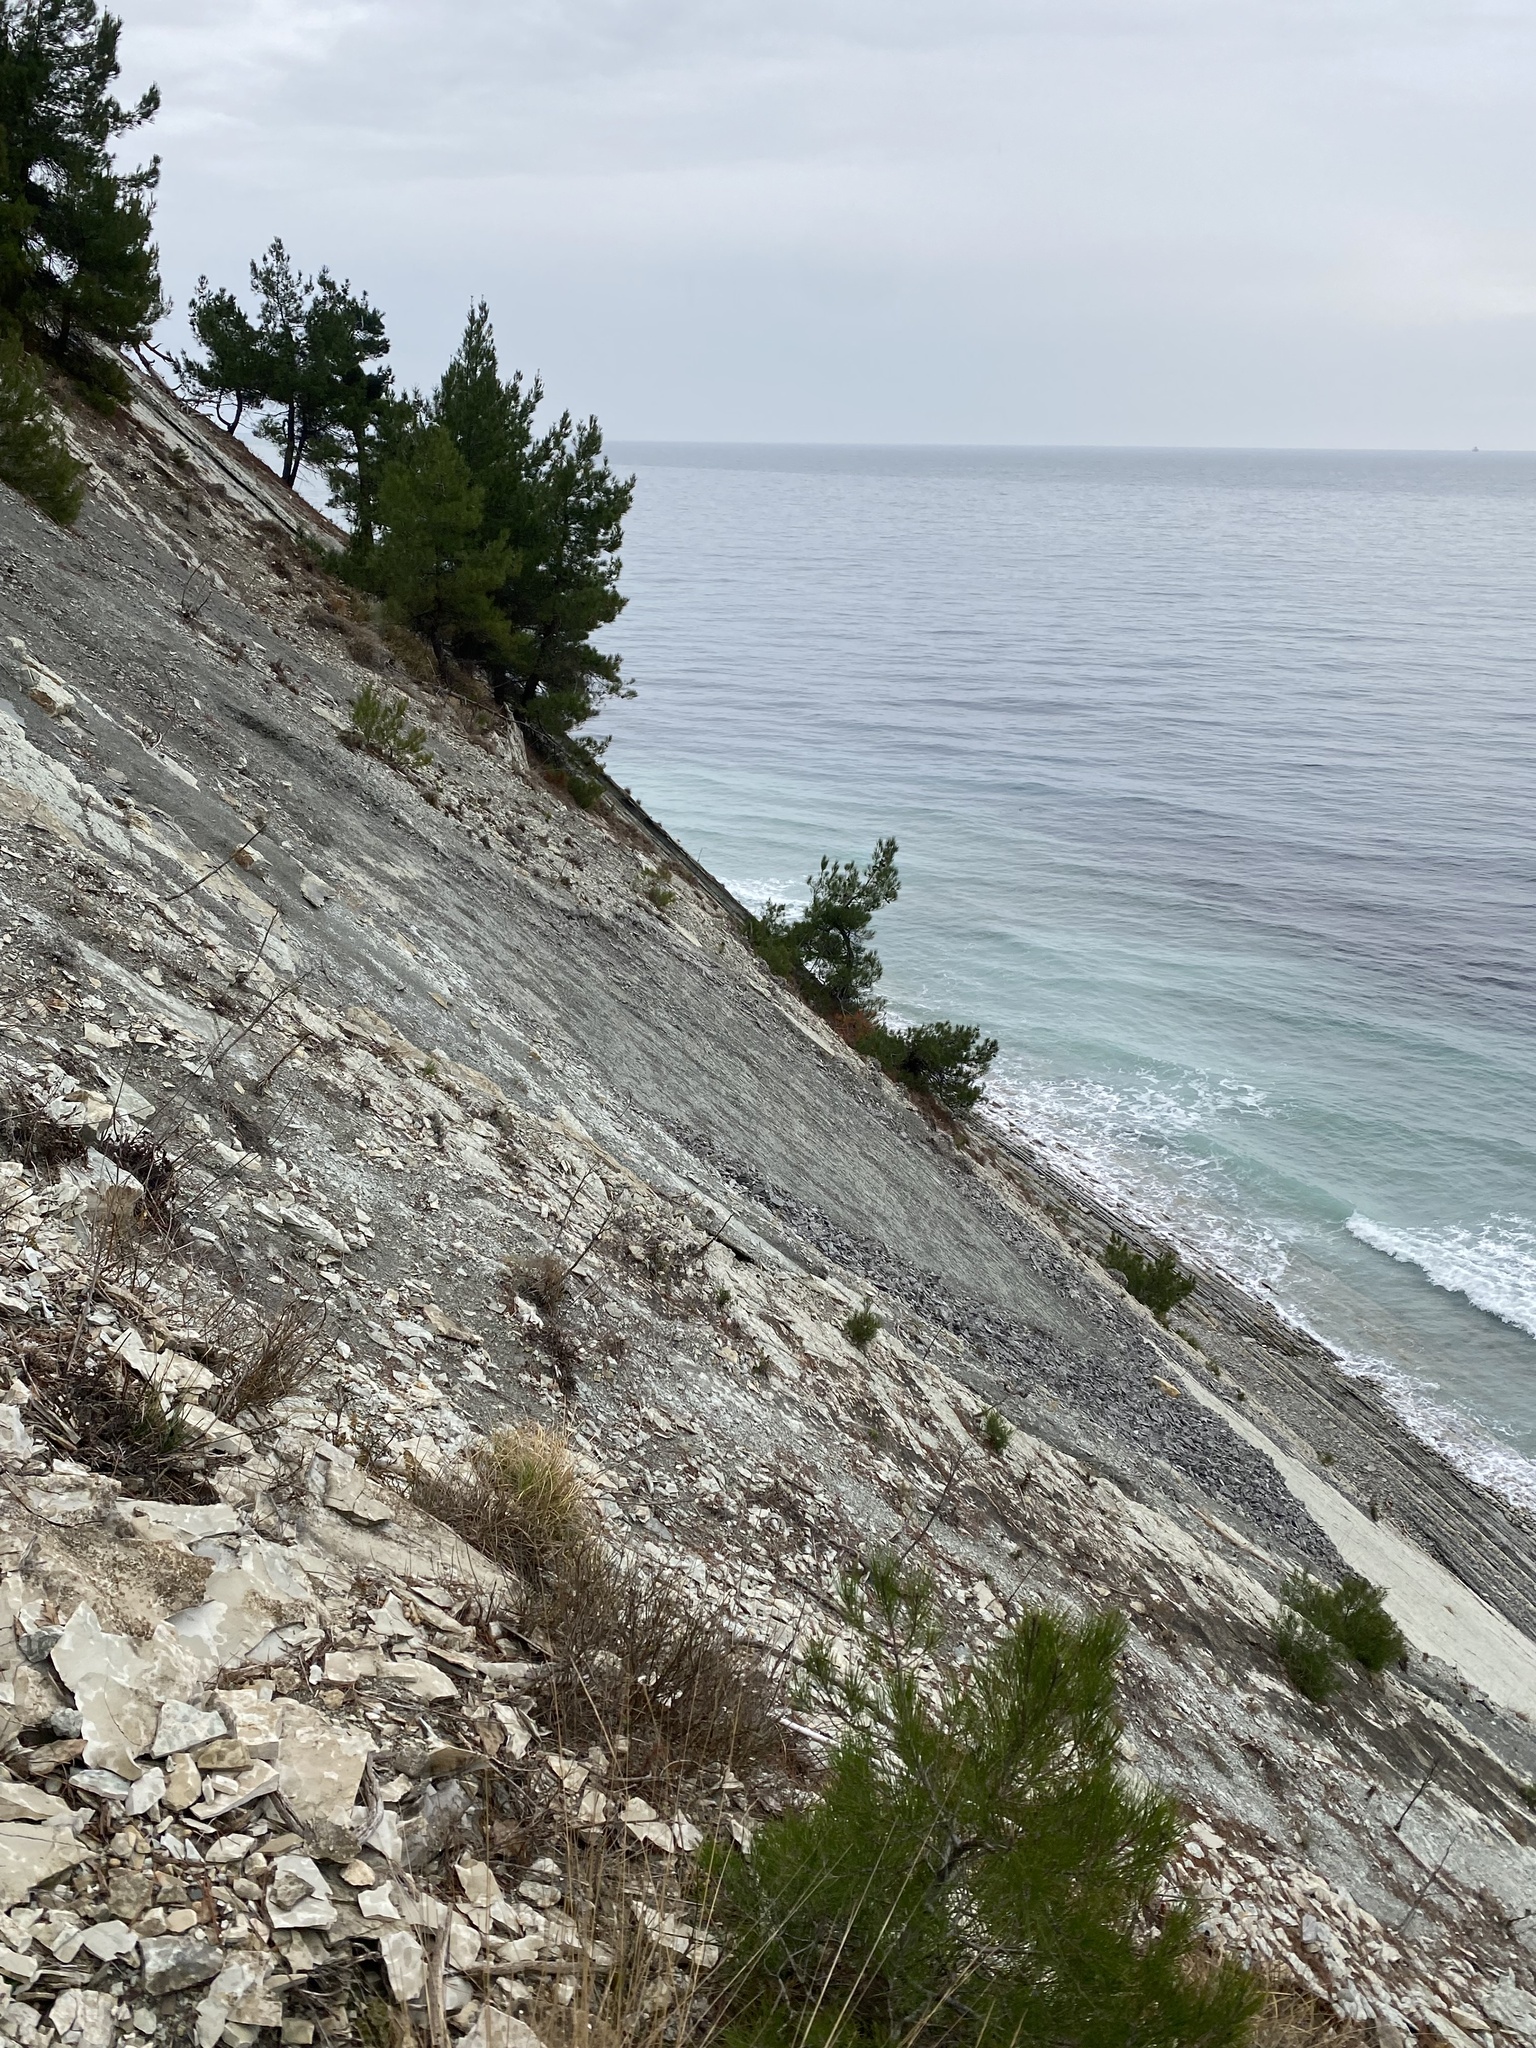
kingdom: Plantae
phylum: Tracheophyta
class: Pinopsida
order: Pinales
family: Pinaceae
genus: Pinus
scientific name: Pinus brutia
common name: Turkish pine
